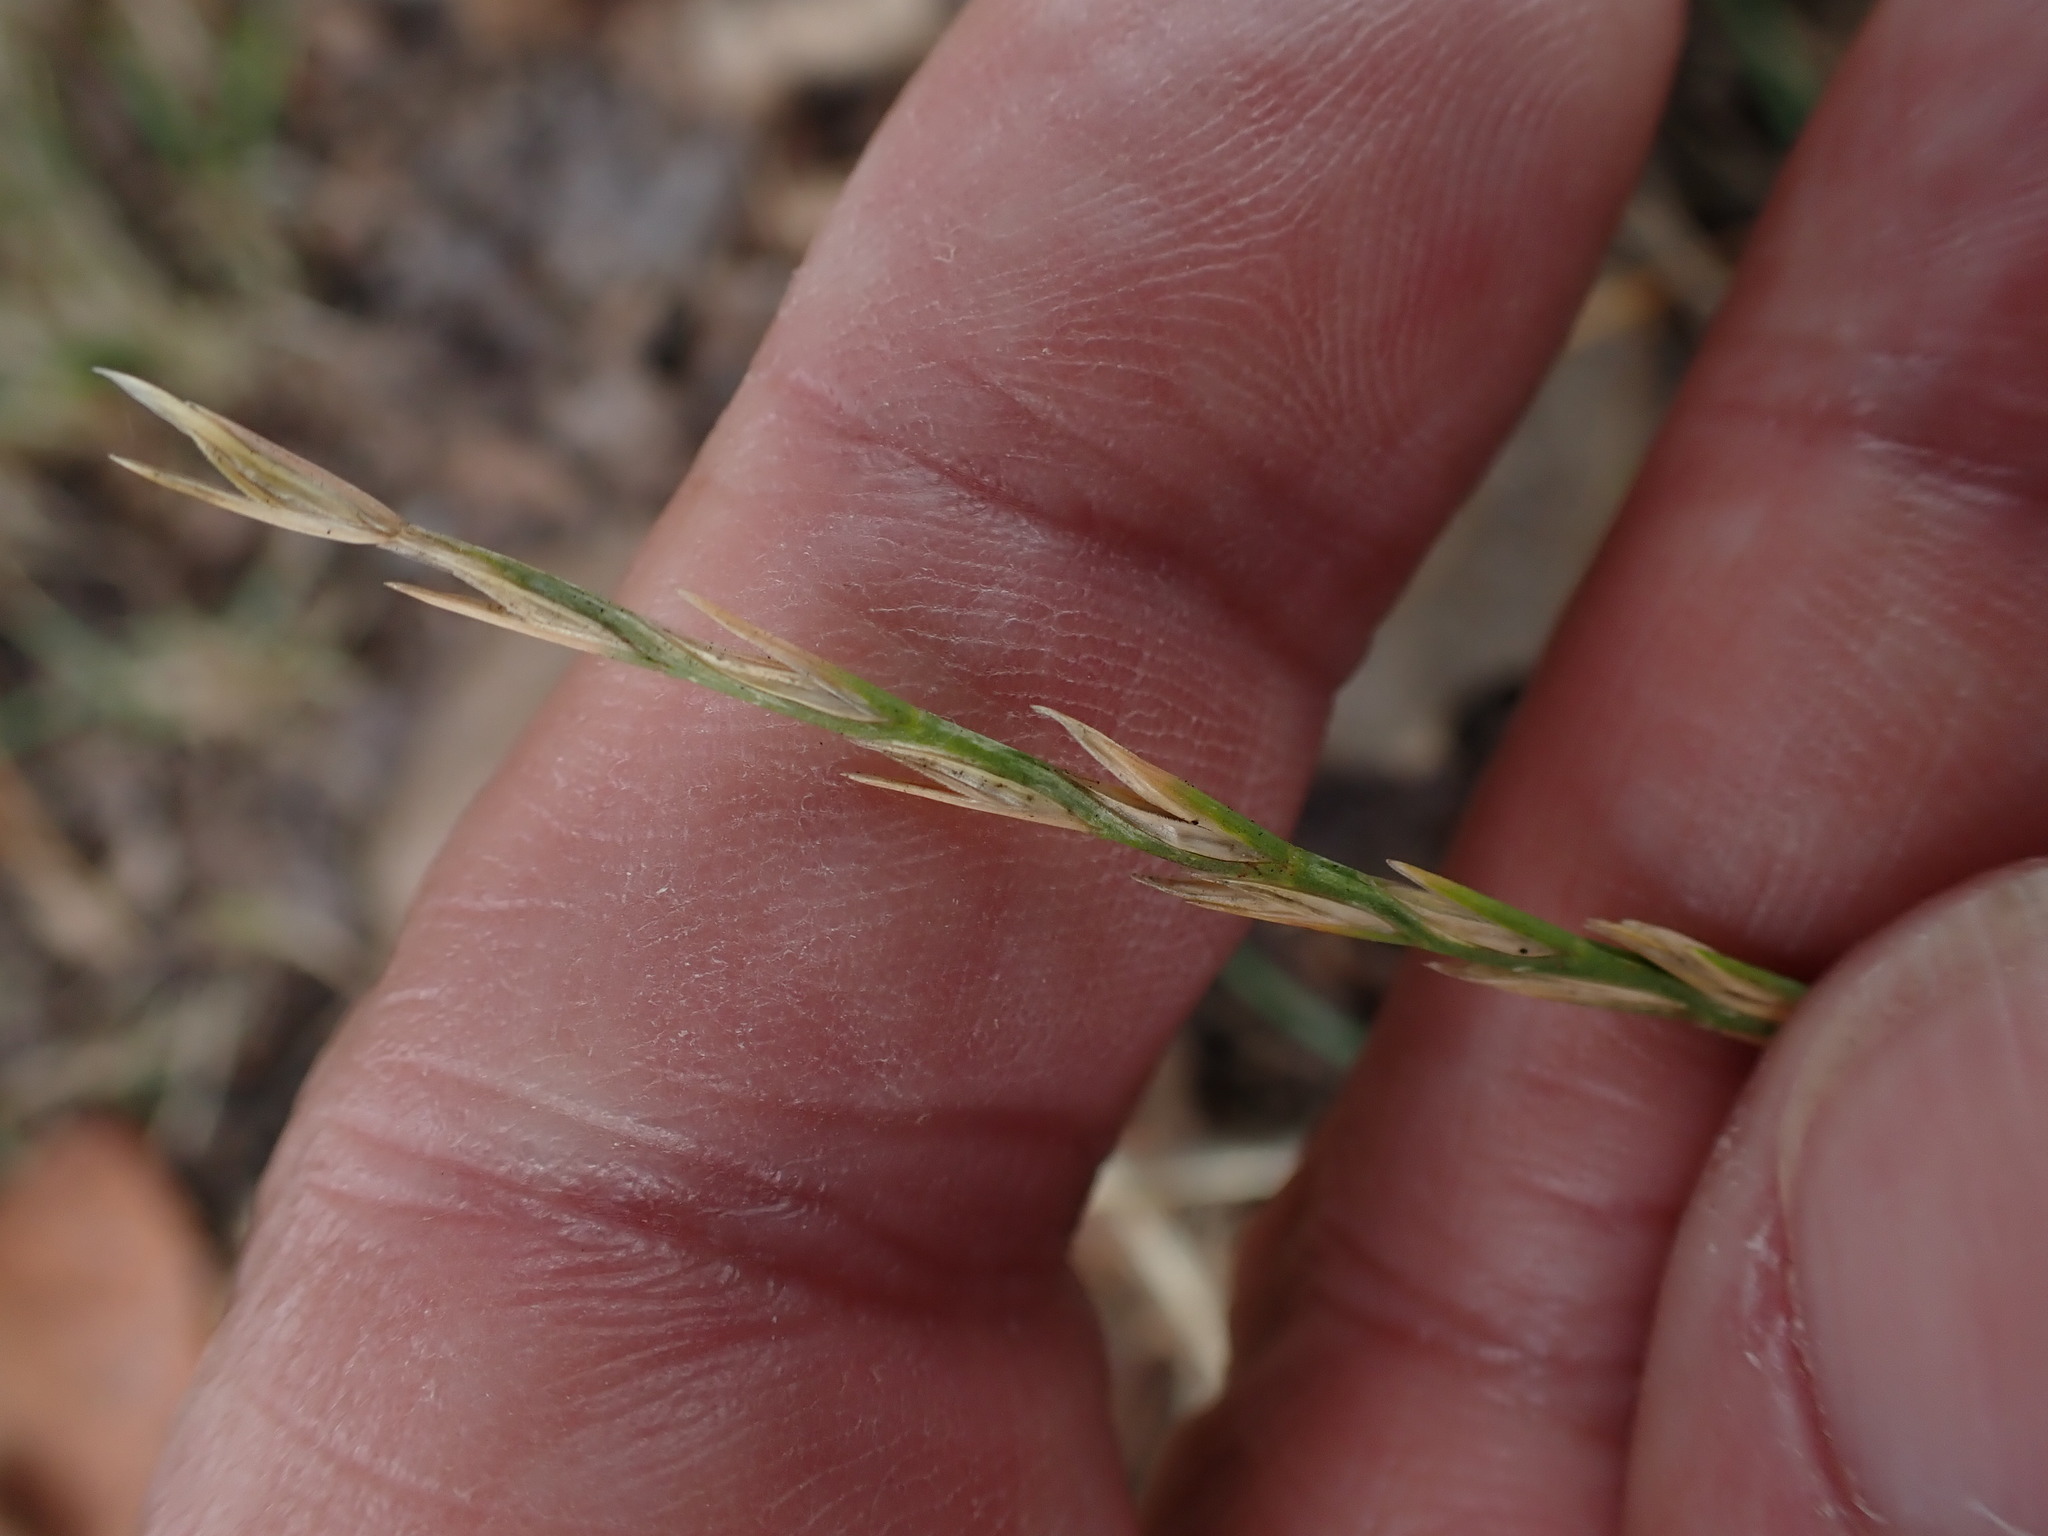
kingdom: Plantae
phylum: Tracheophyta
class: Liliopsida
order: Poales
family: Poaceae
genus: Lolium
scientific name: Lolium perenne
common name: Perennial ryegrass
